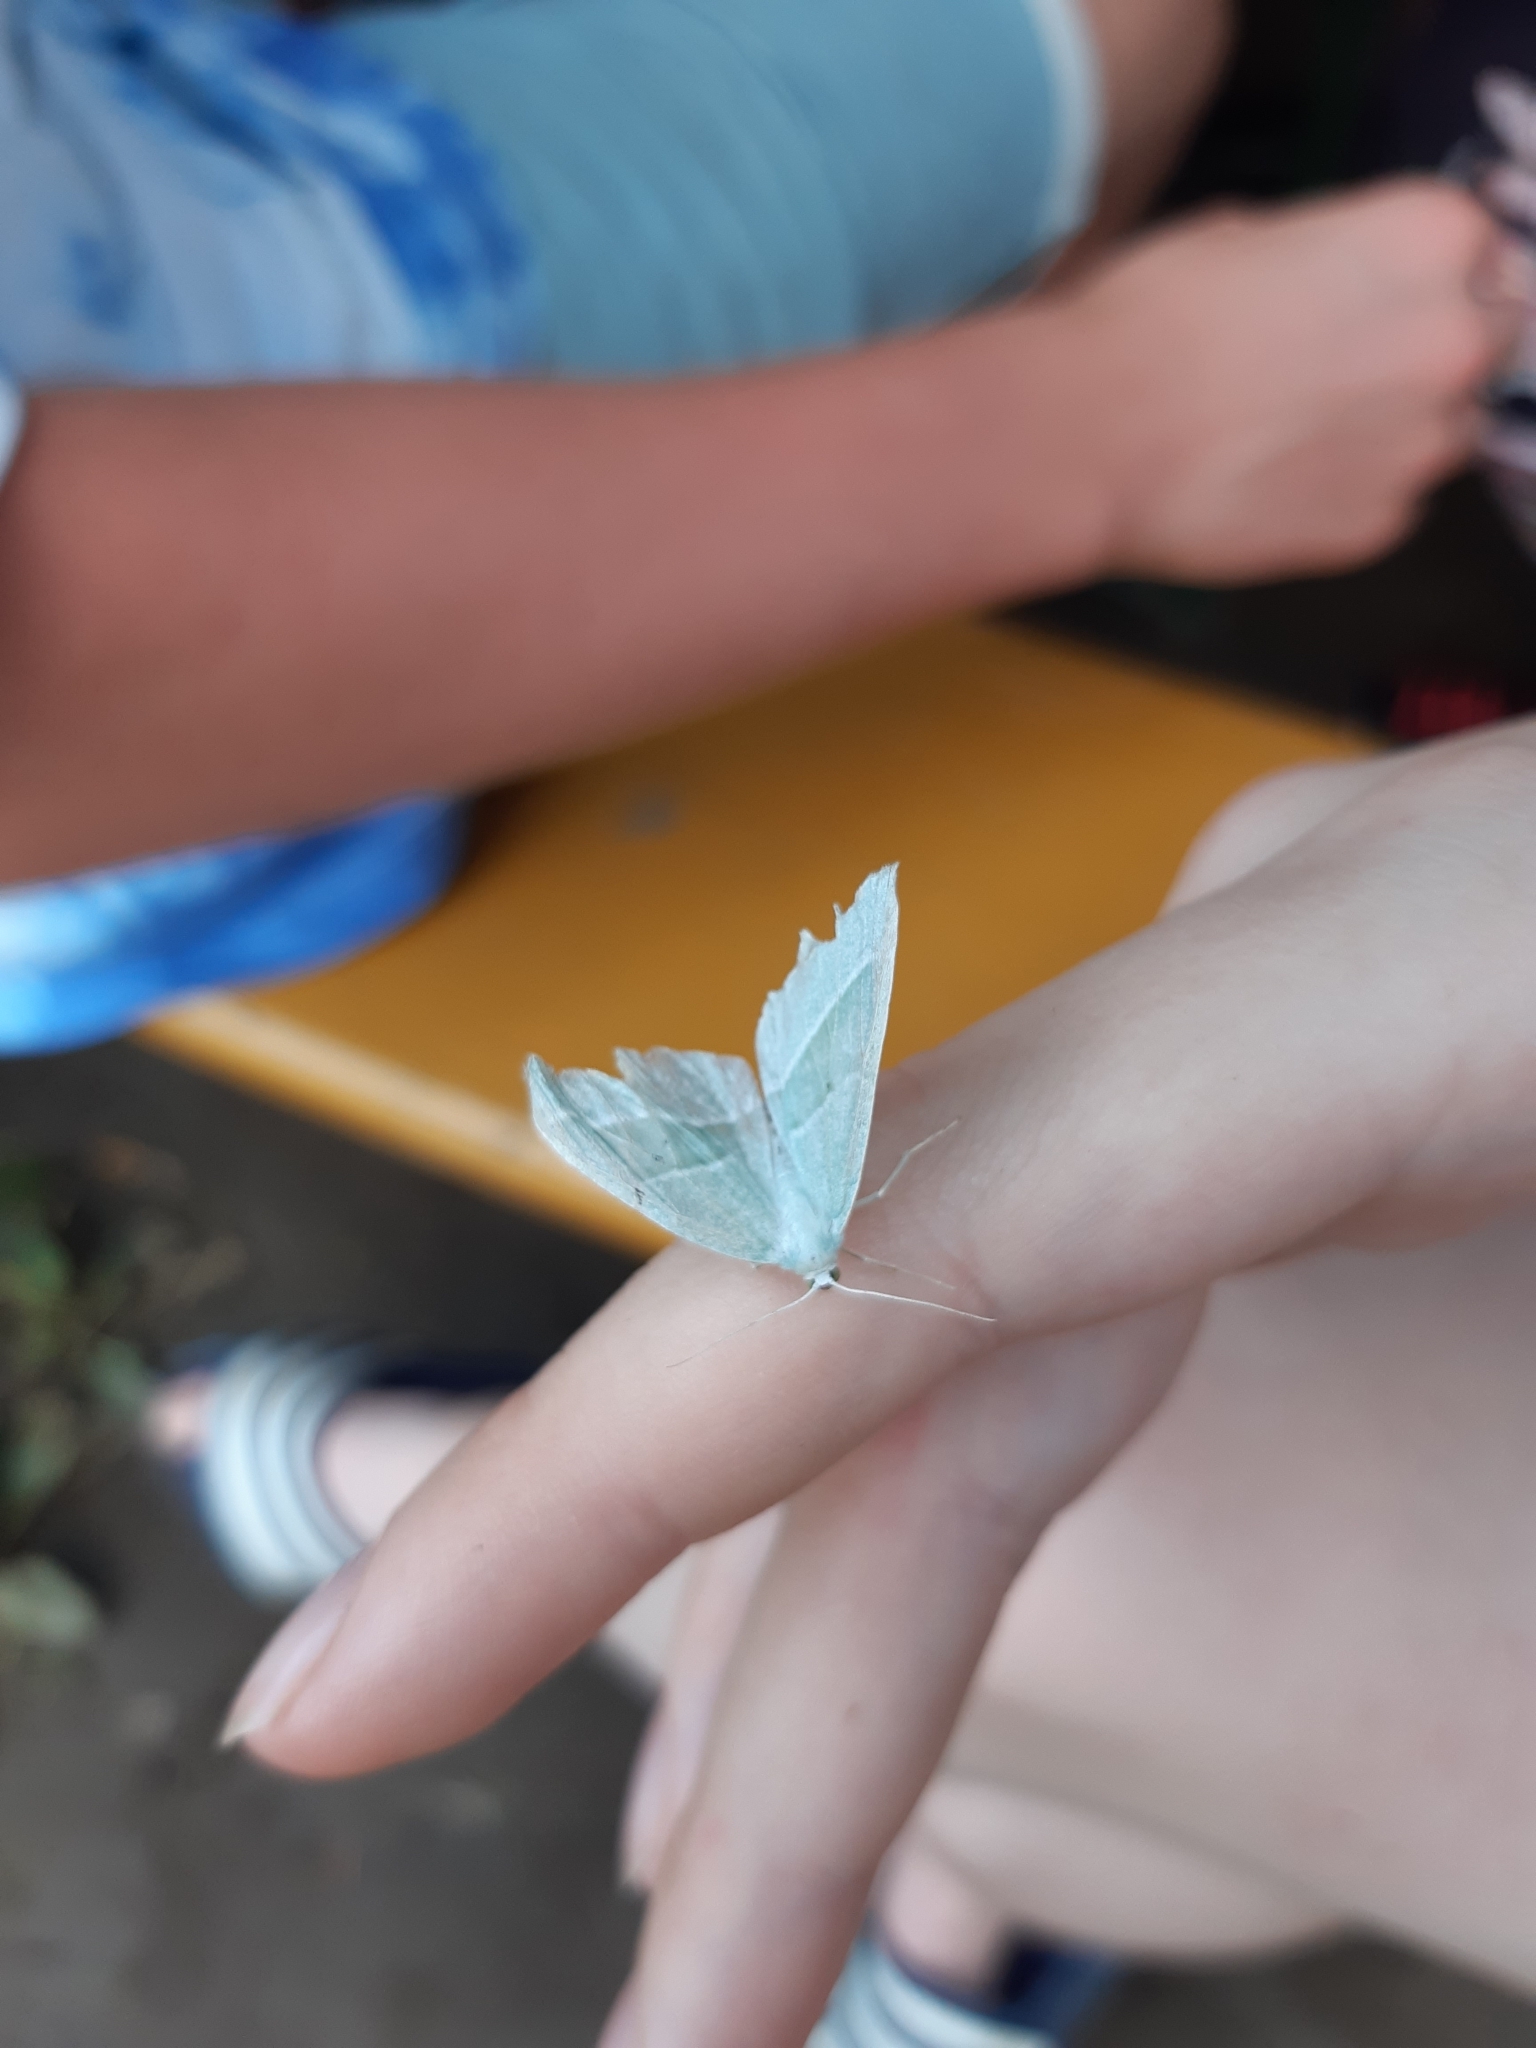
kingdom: Animalia
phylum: Arthropoda
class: Insecta
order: Lepidoptera
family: Geometridae
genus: Hylaea
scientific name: Hylaea fasciaria
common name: Barred red
